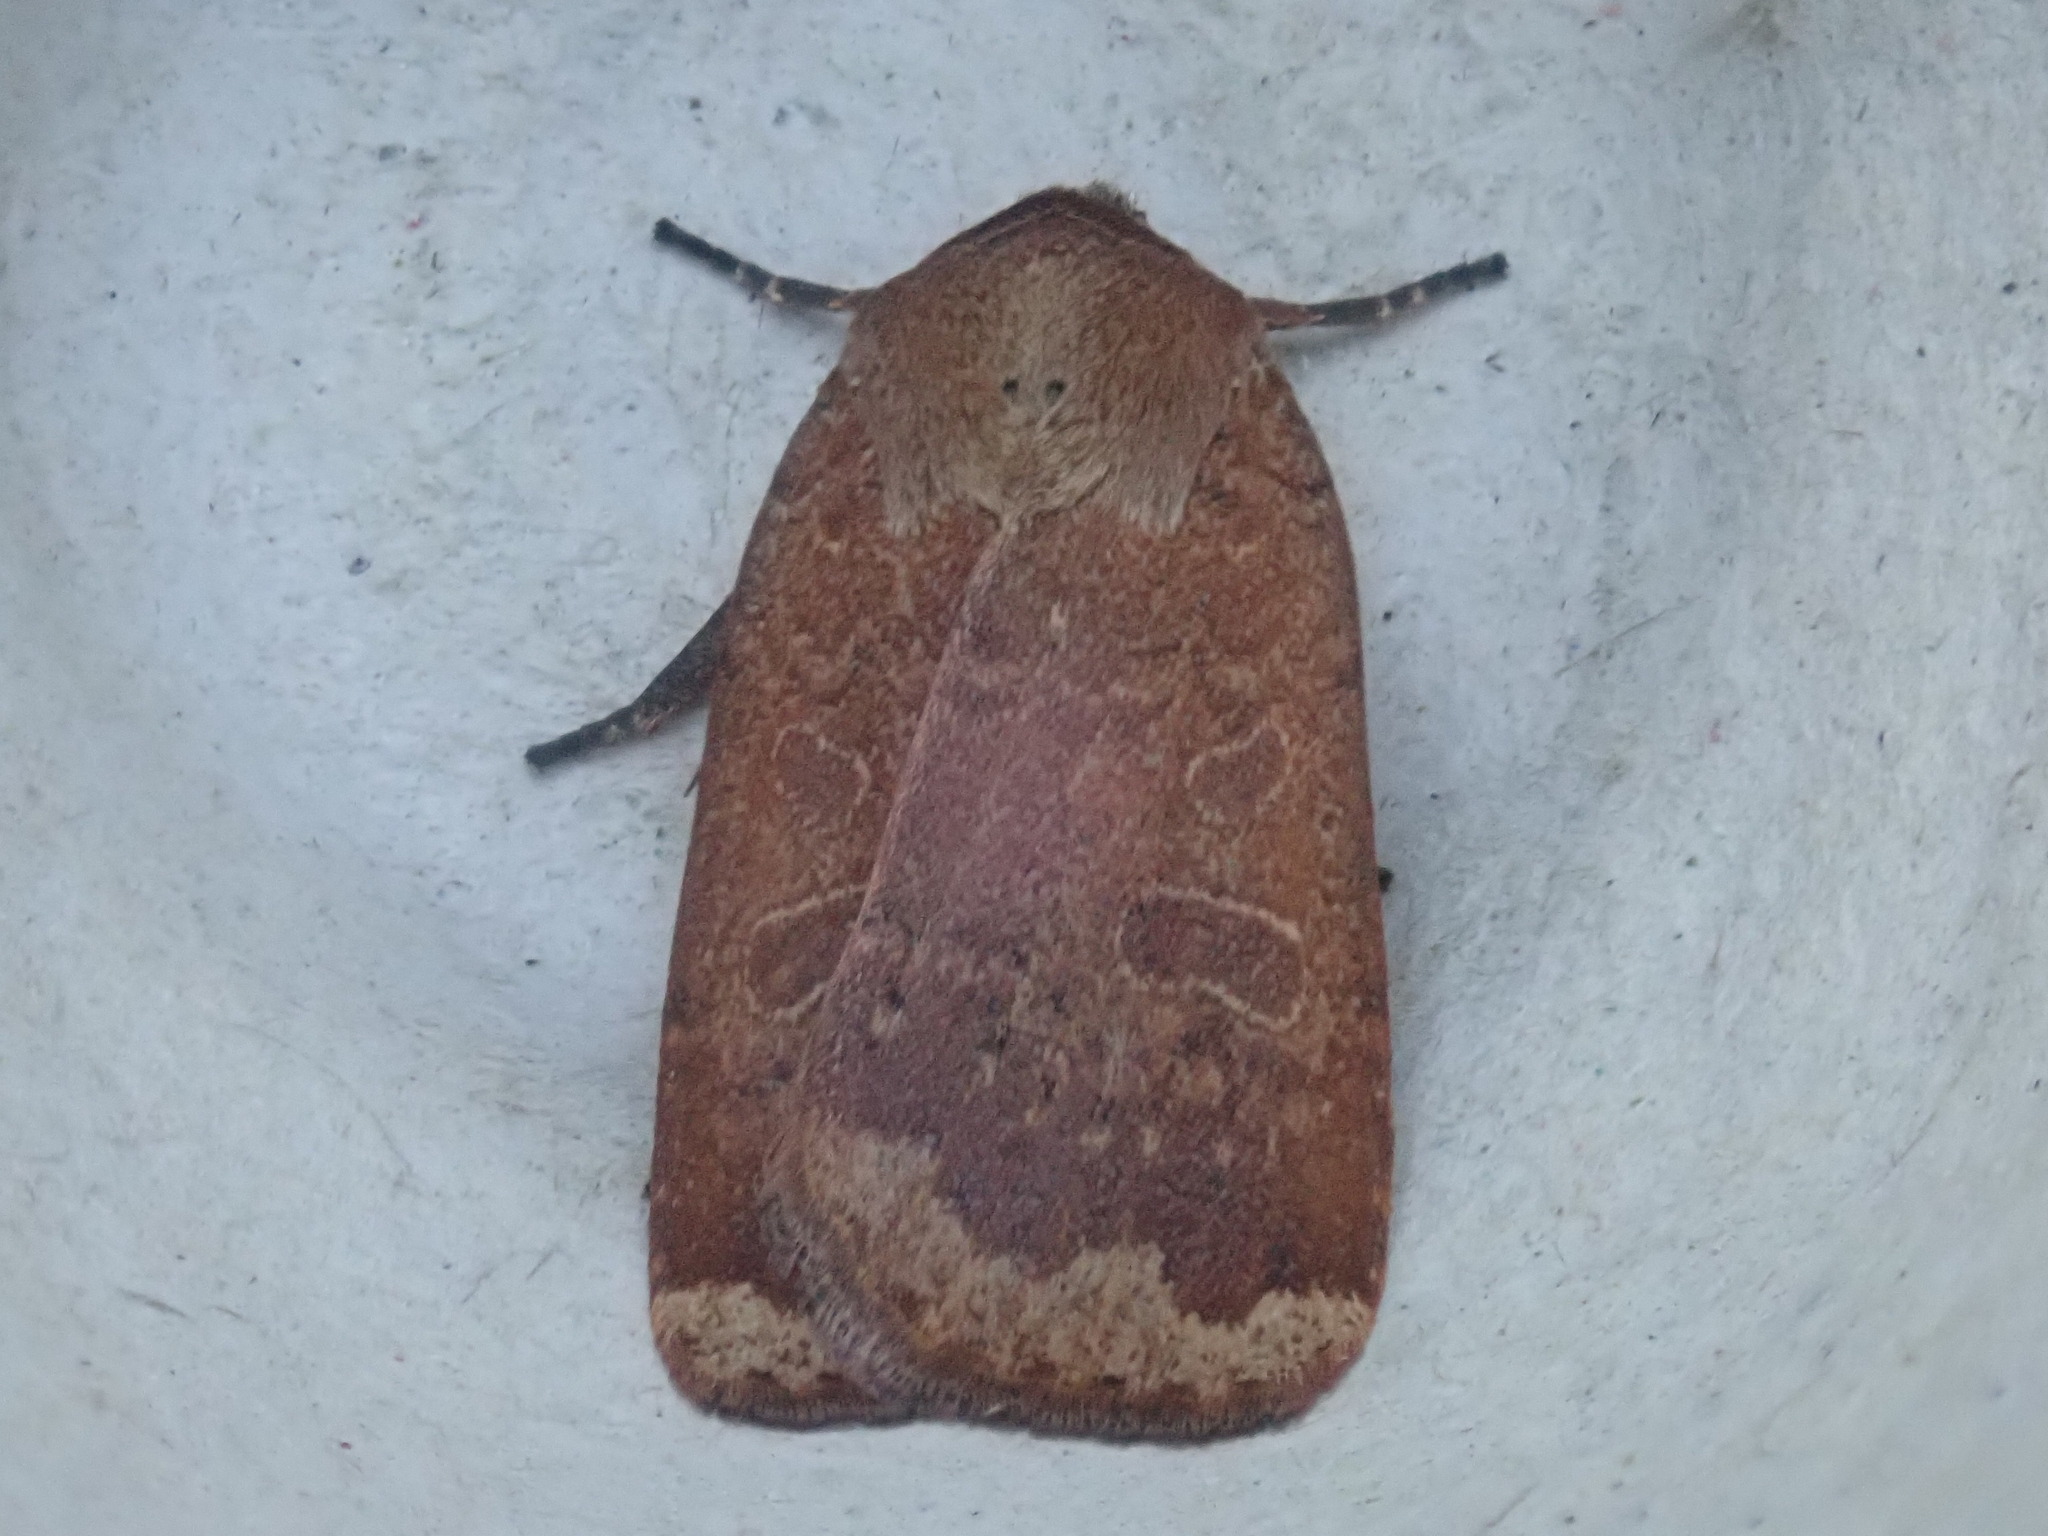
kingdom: Animalia
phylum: Arthropoda
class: Insecta
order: Lepidoptera
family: Noctuidae
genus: Abagrotis
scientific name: Abagrotis alternata
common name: Greater red dart
